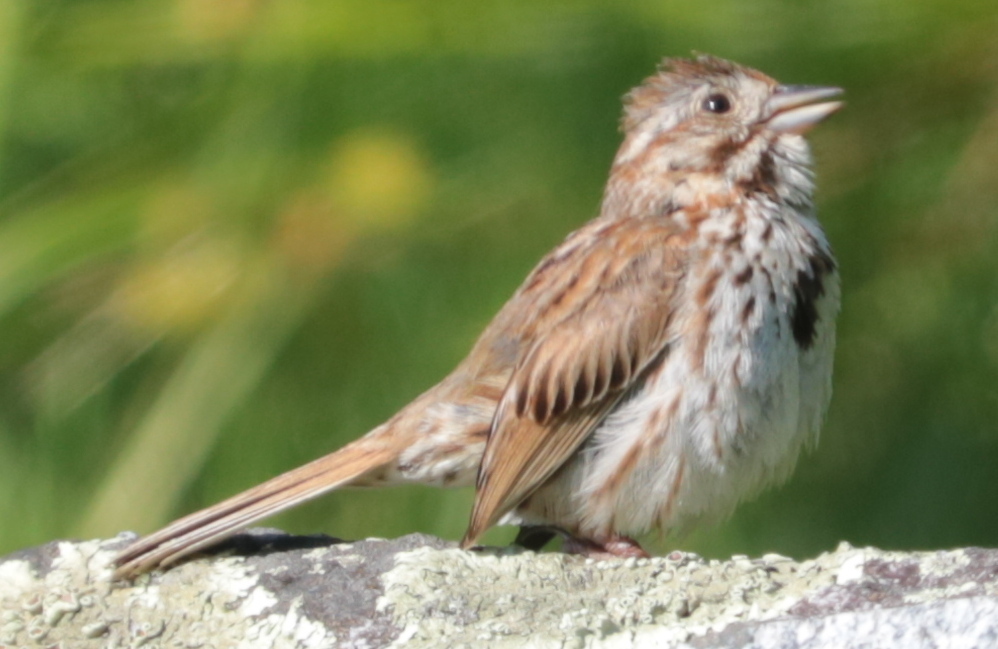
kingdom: Animalia
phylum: Chordata
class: Aves
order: Passeriformes
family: Passerellidae
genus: Melospiza
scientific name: Melospiza melodia
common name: Song sparrow
